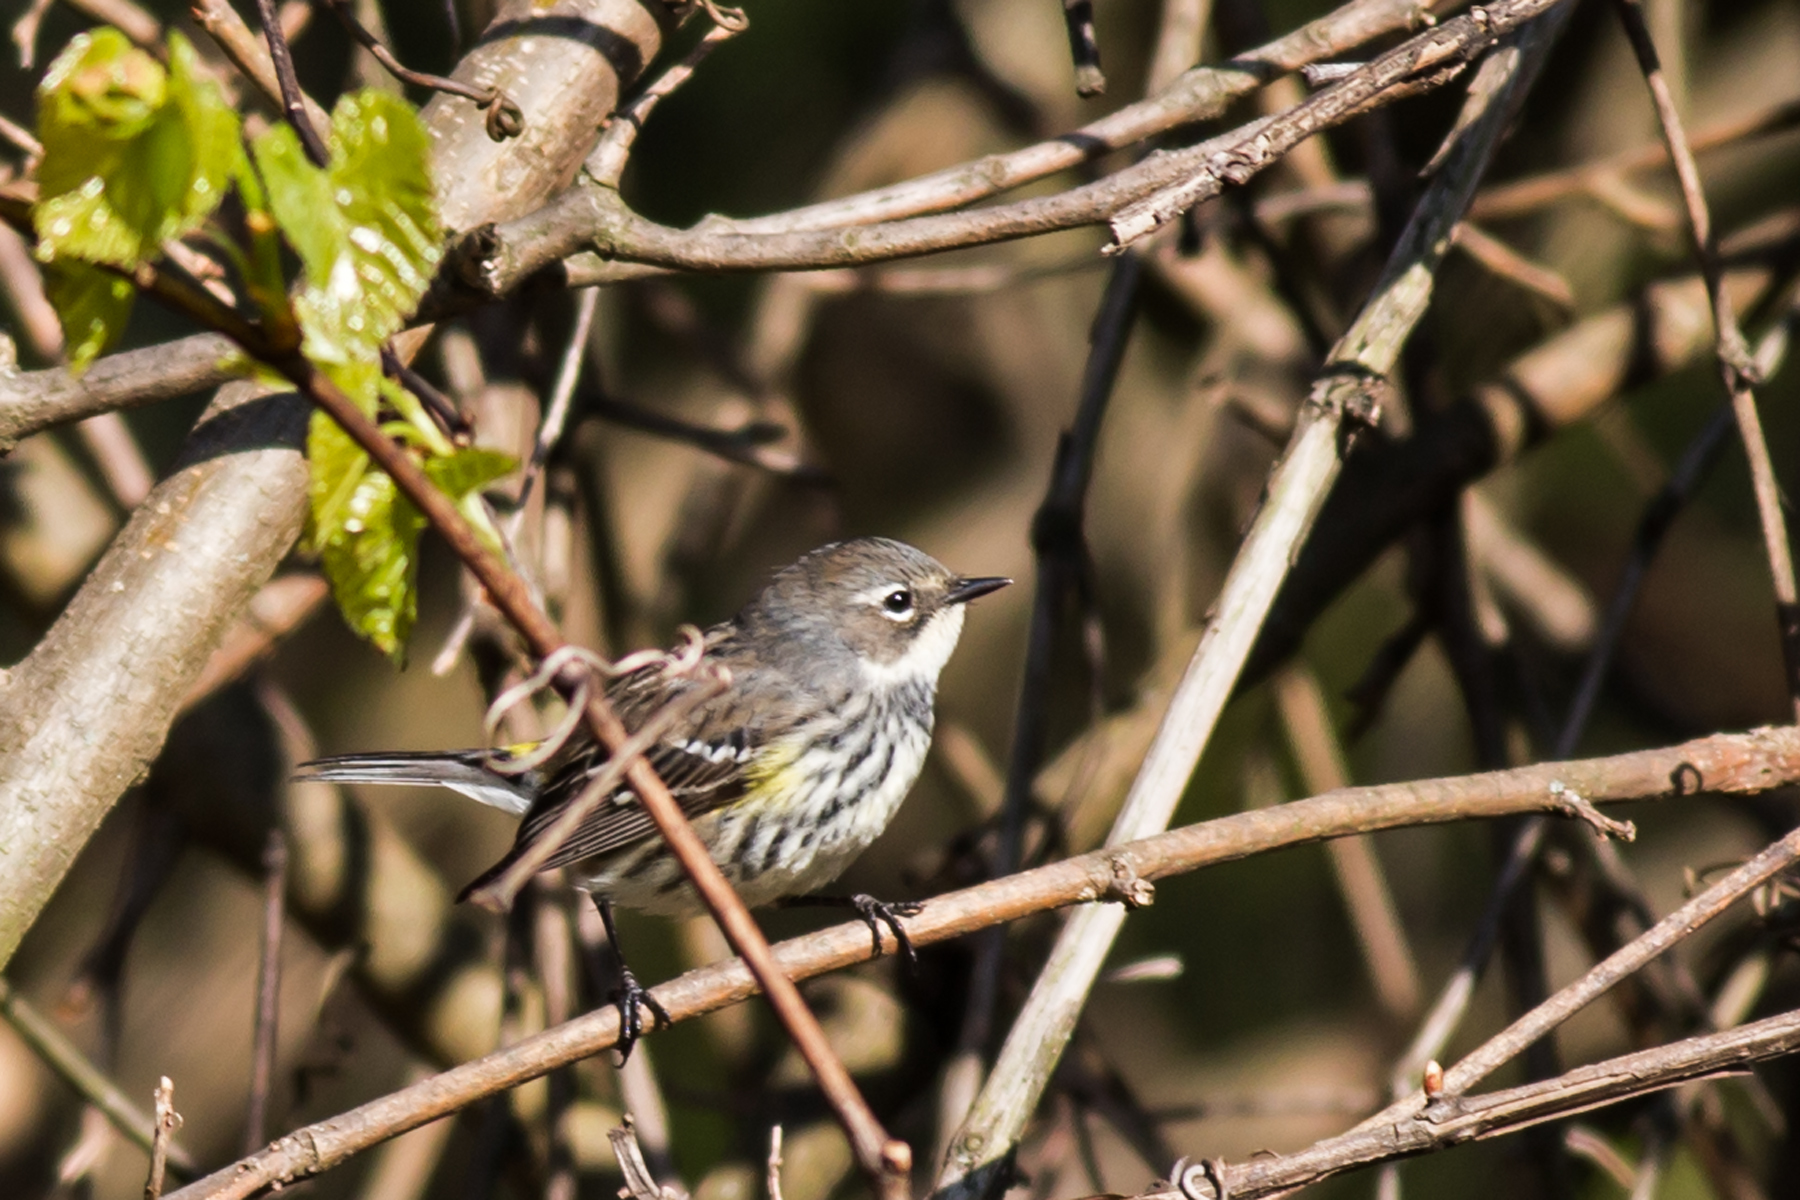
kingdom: Animalia
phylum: Chordata
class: Aves
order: Passeriformes
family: Parulidae
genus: Setophaga
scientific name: Setophaga coronata
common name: Myrtle warbler
